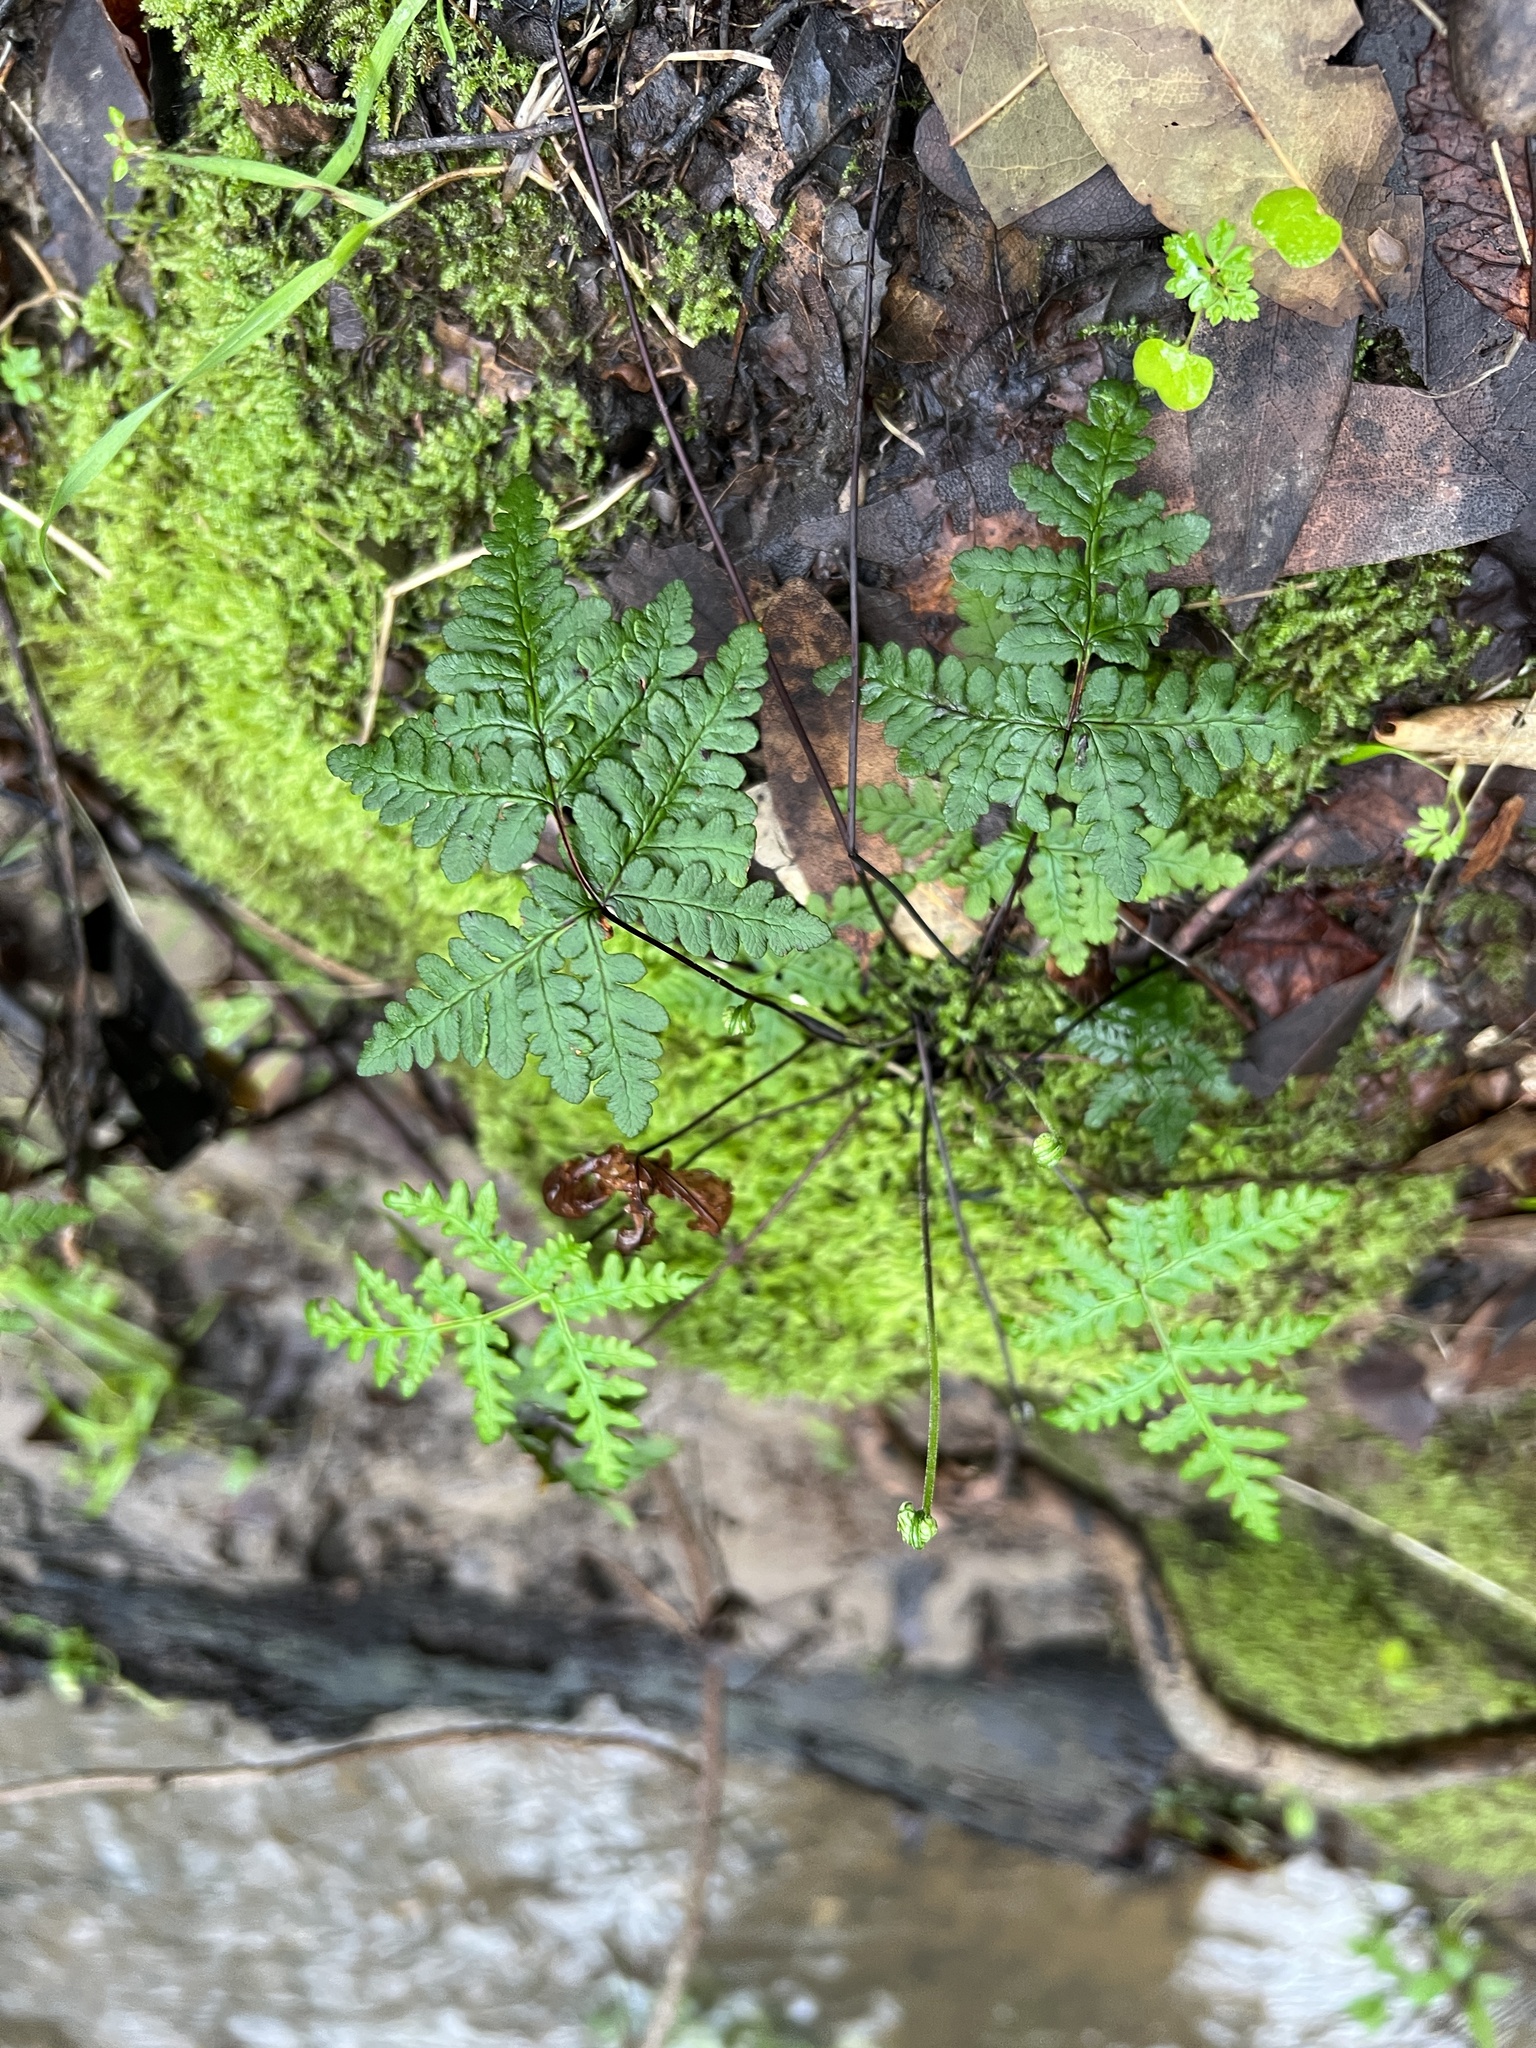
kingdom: Plantae
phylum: Tracheophyta
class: Polypodiopsida
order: Polypodiales
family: Pteridaceae
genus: Pentagramma
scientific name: Pentagramma triangularis
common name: Gold fern
